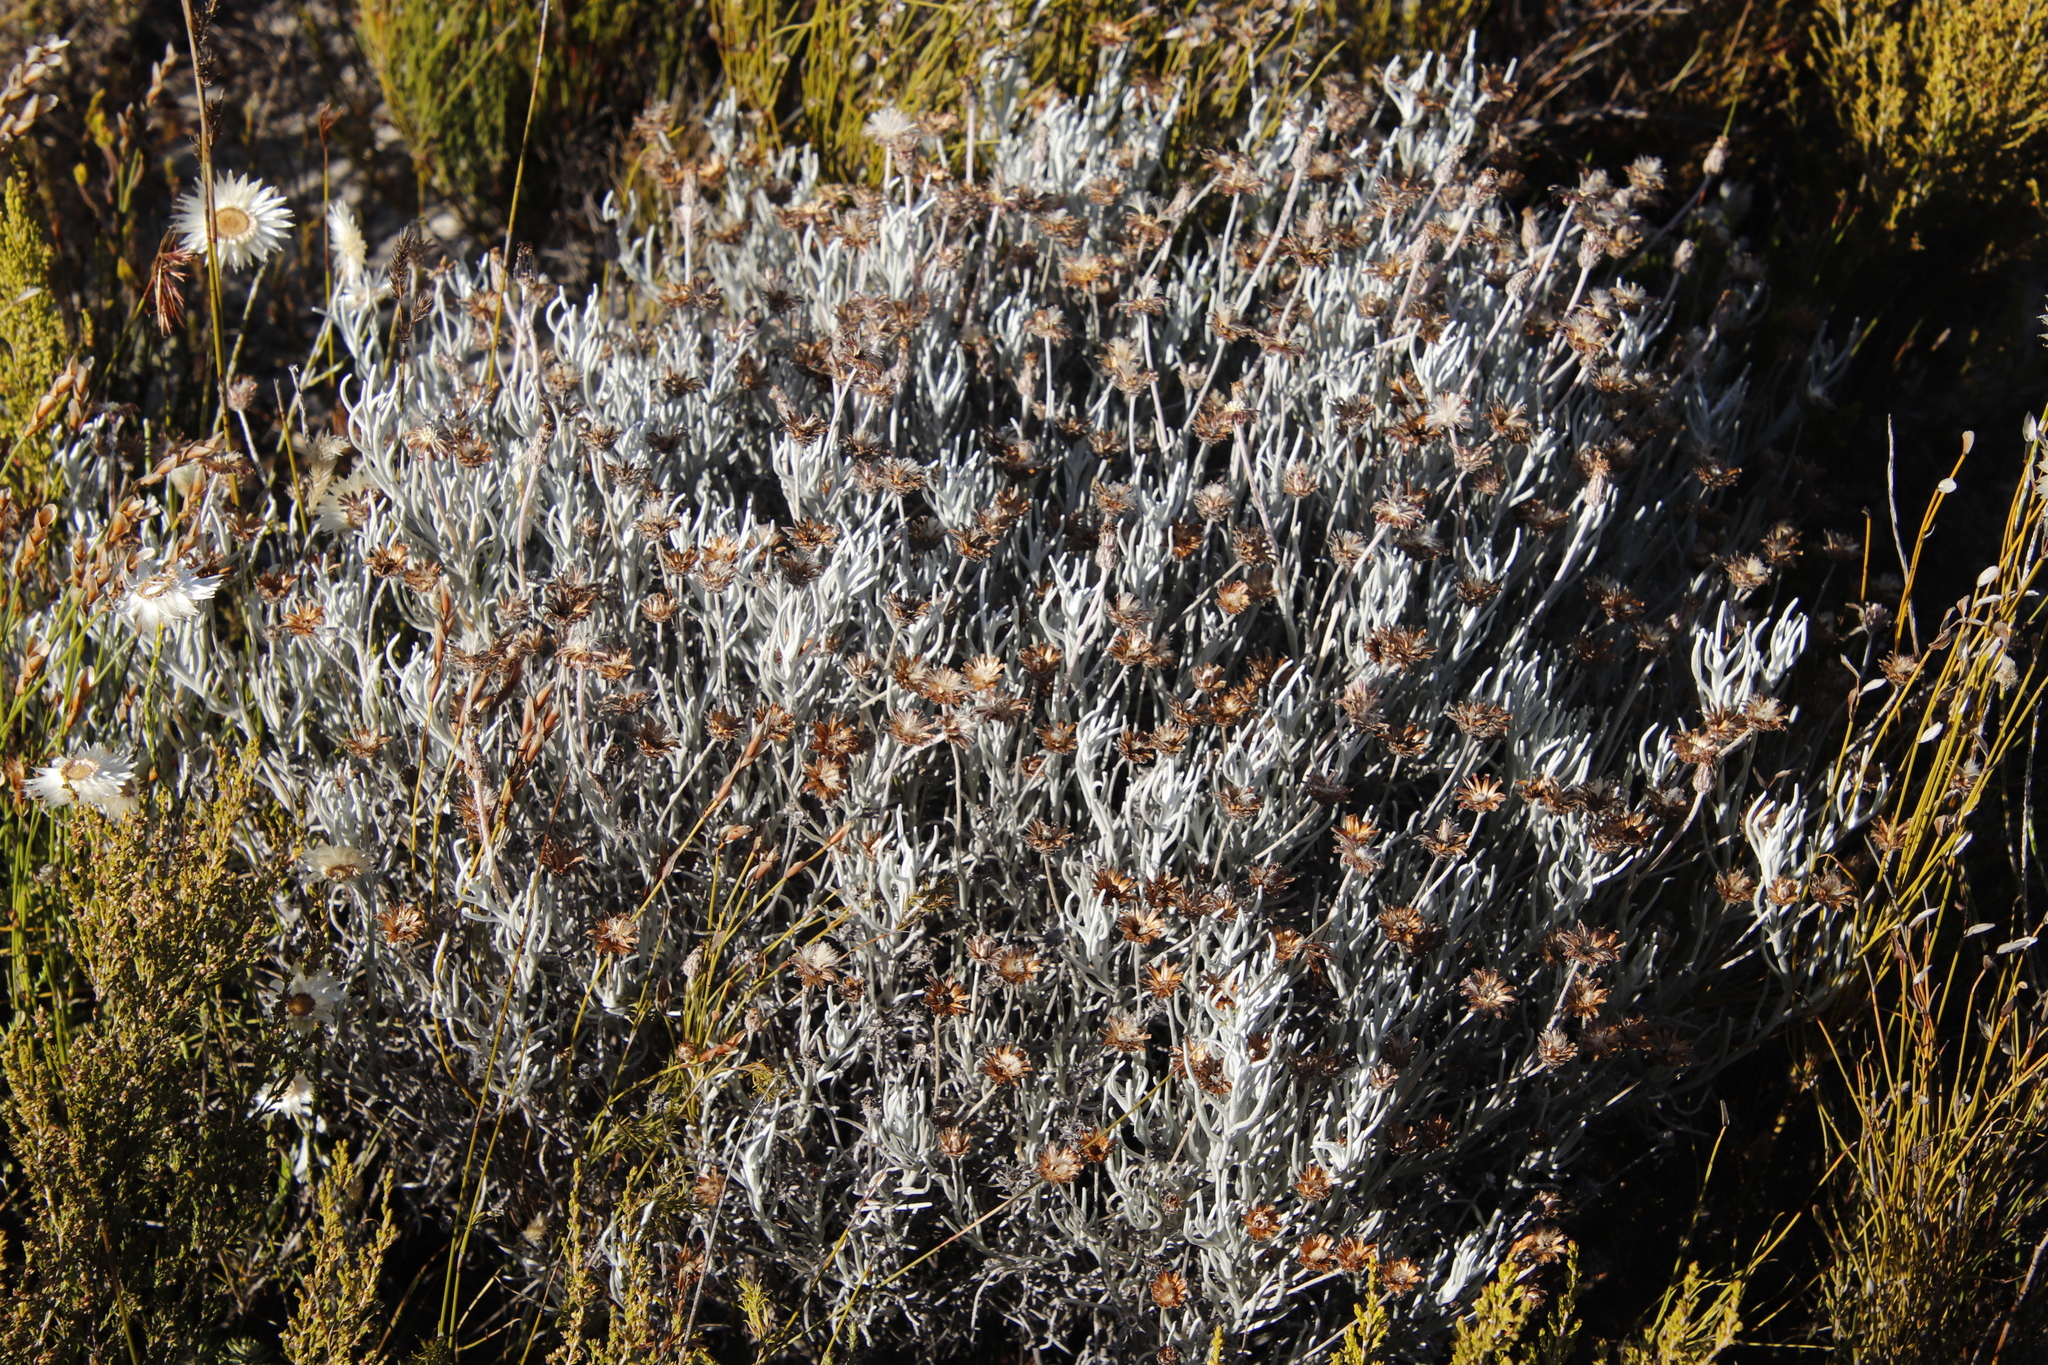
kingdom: Plantae
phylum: Tracheophyta
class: Magnoliopsida
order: Asterales
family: Asteraceae
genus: Syncarpha
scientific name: Syncarpha gnaphaloides
